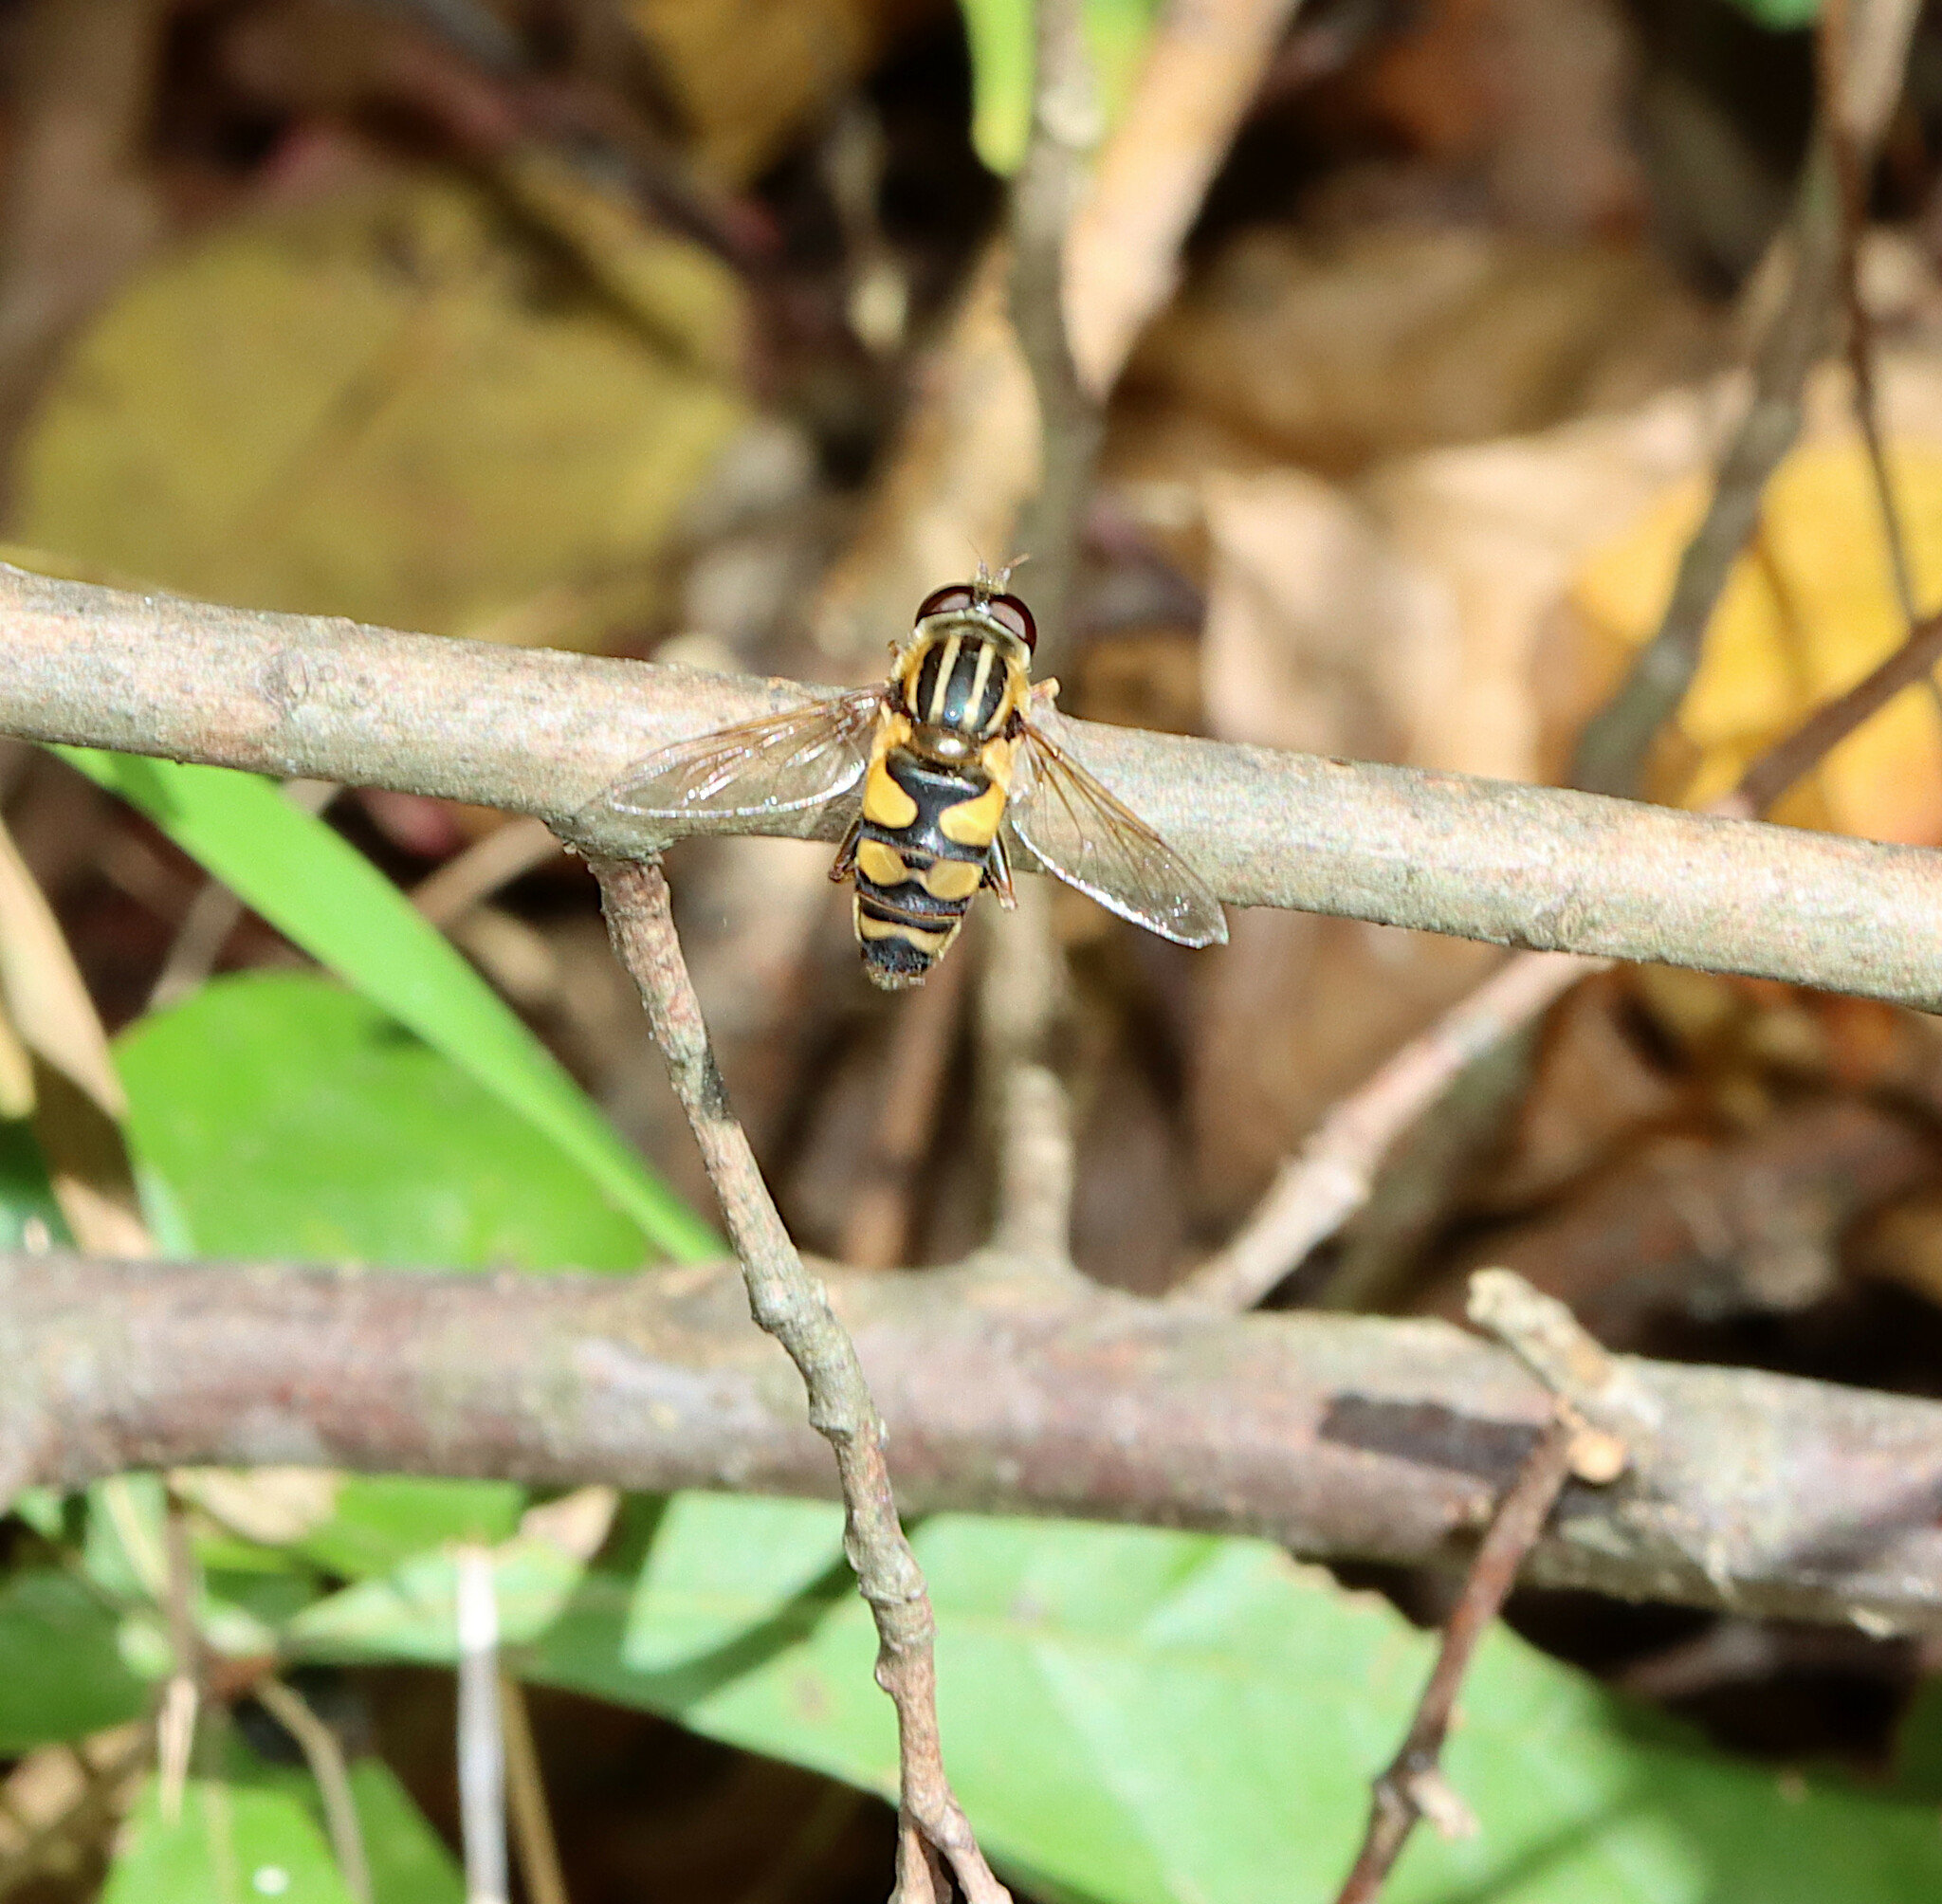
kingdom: Animalia
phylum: Arthropoda
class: Insecta
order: Diptera
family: Syrphidae
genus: Helophilus
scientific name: Helophilus fasciatus
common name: Narrow-headed marsh fly
